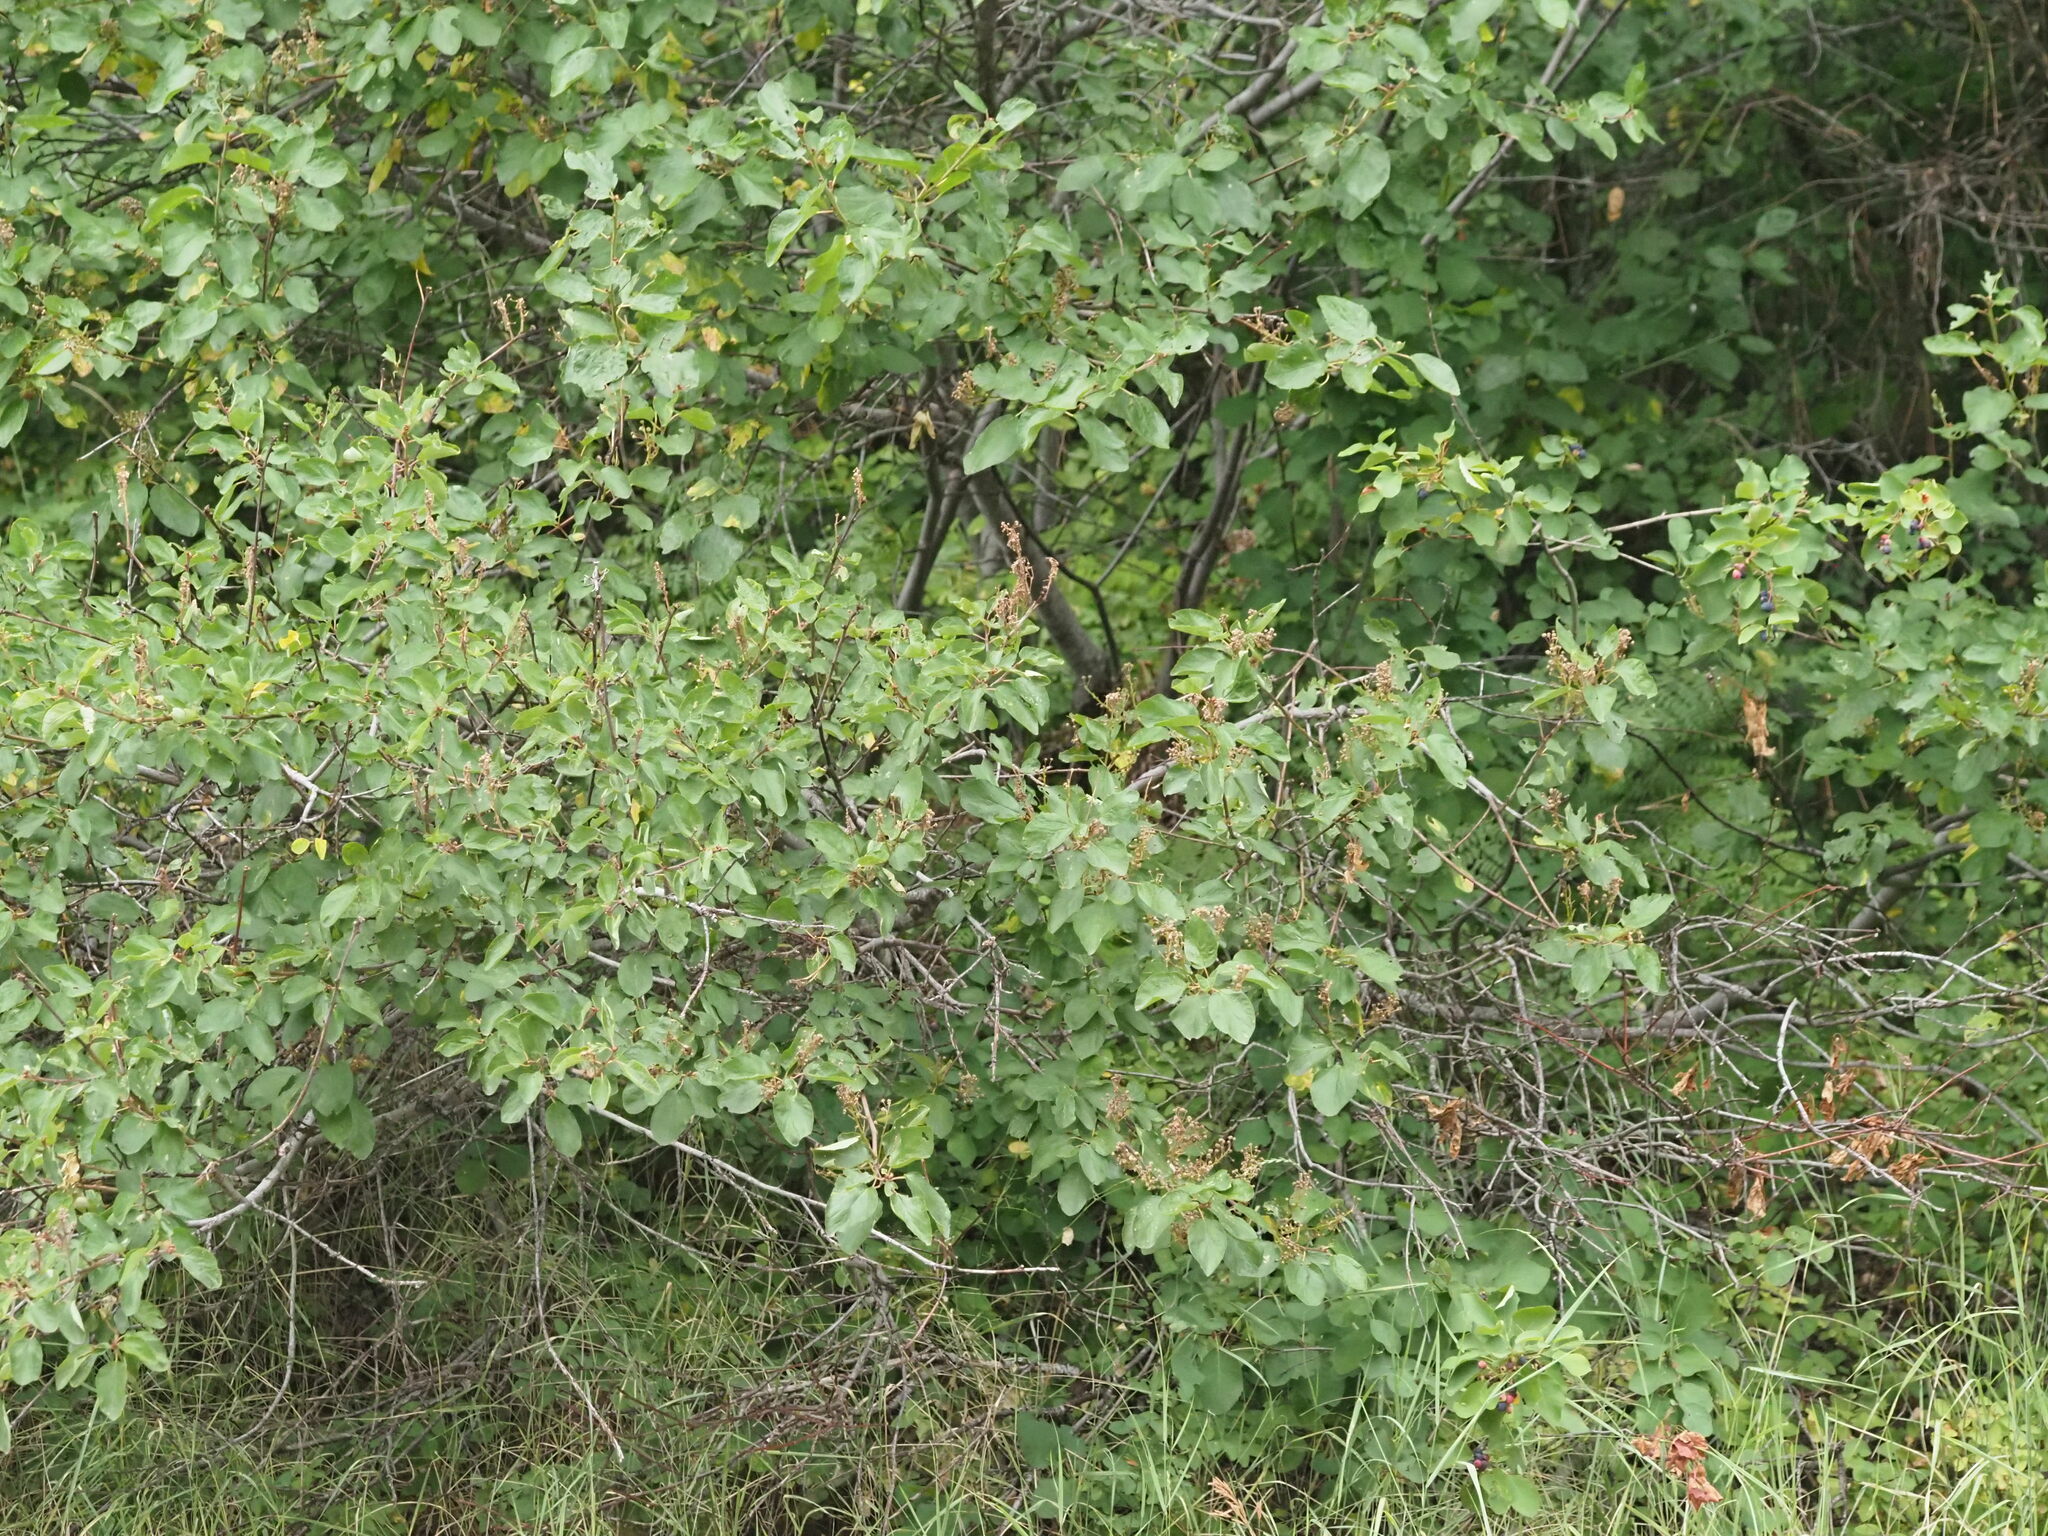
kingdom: Plantae
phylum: Tracheophyta
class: Magnoliopsida
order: Rosales
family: Rhamnaceae
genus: Ceanothus
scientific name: Ceanothus sanguineus
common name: Teatree
